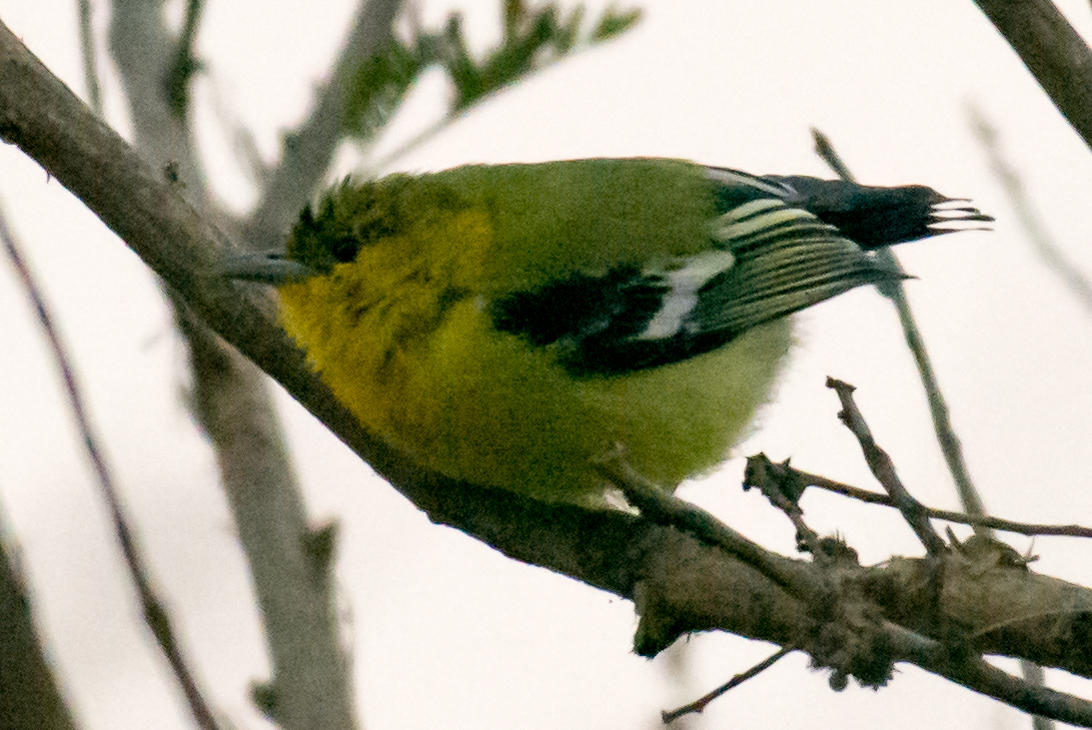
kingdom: Animalia
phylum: Chordata
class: Aves
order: Passeriformes
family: Aegithinidae
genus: Aegithina
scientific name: Aegithina tiphia
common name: Common iora
